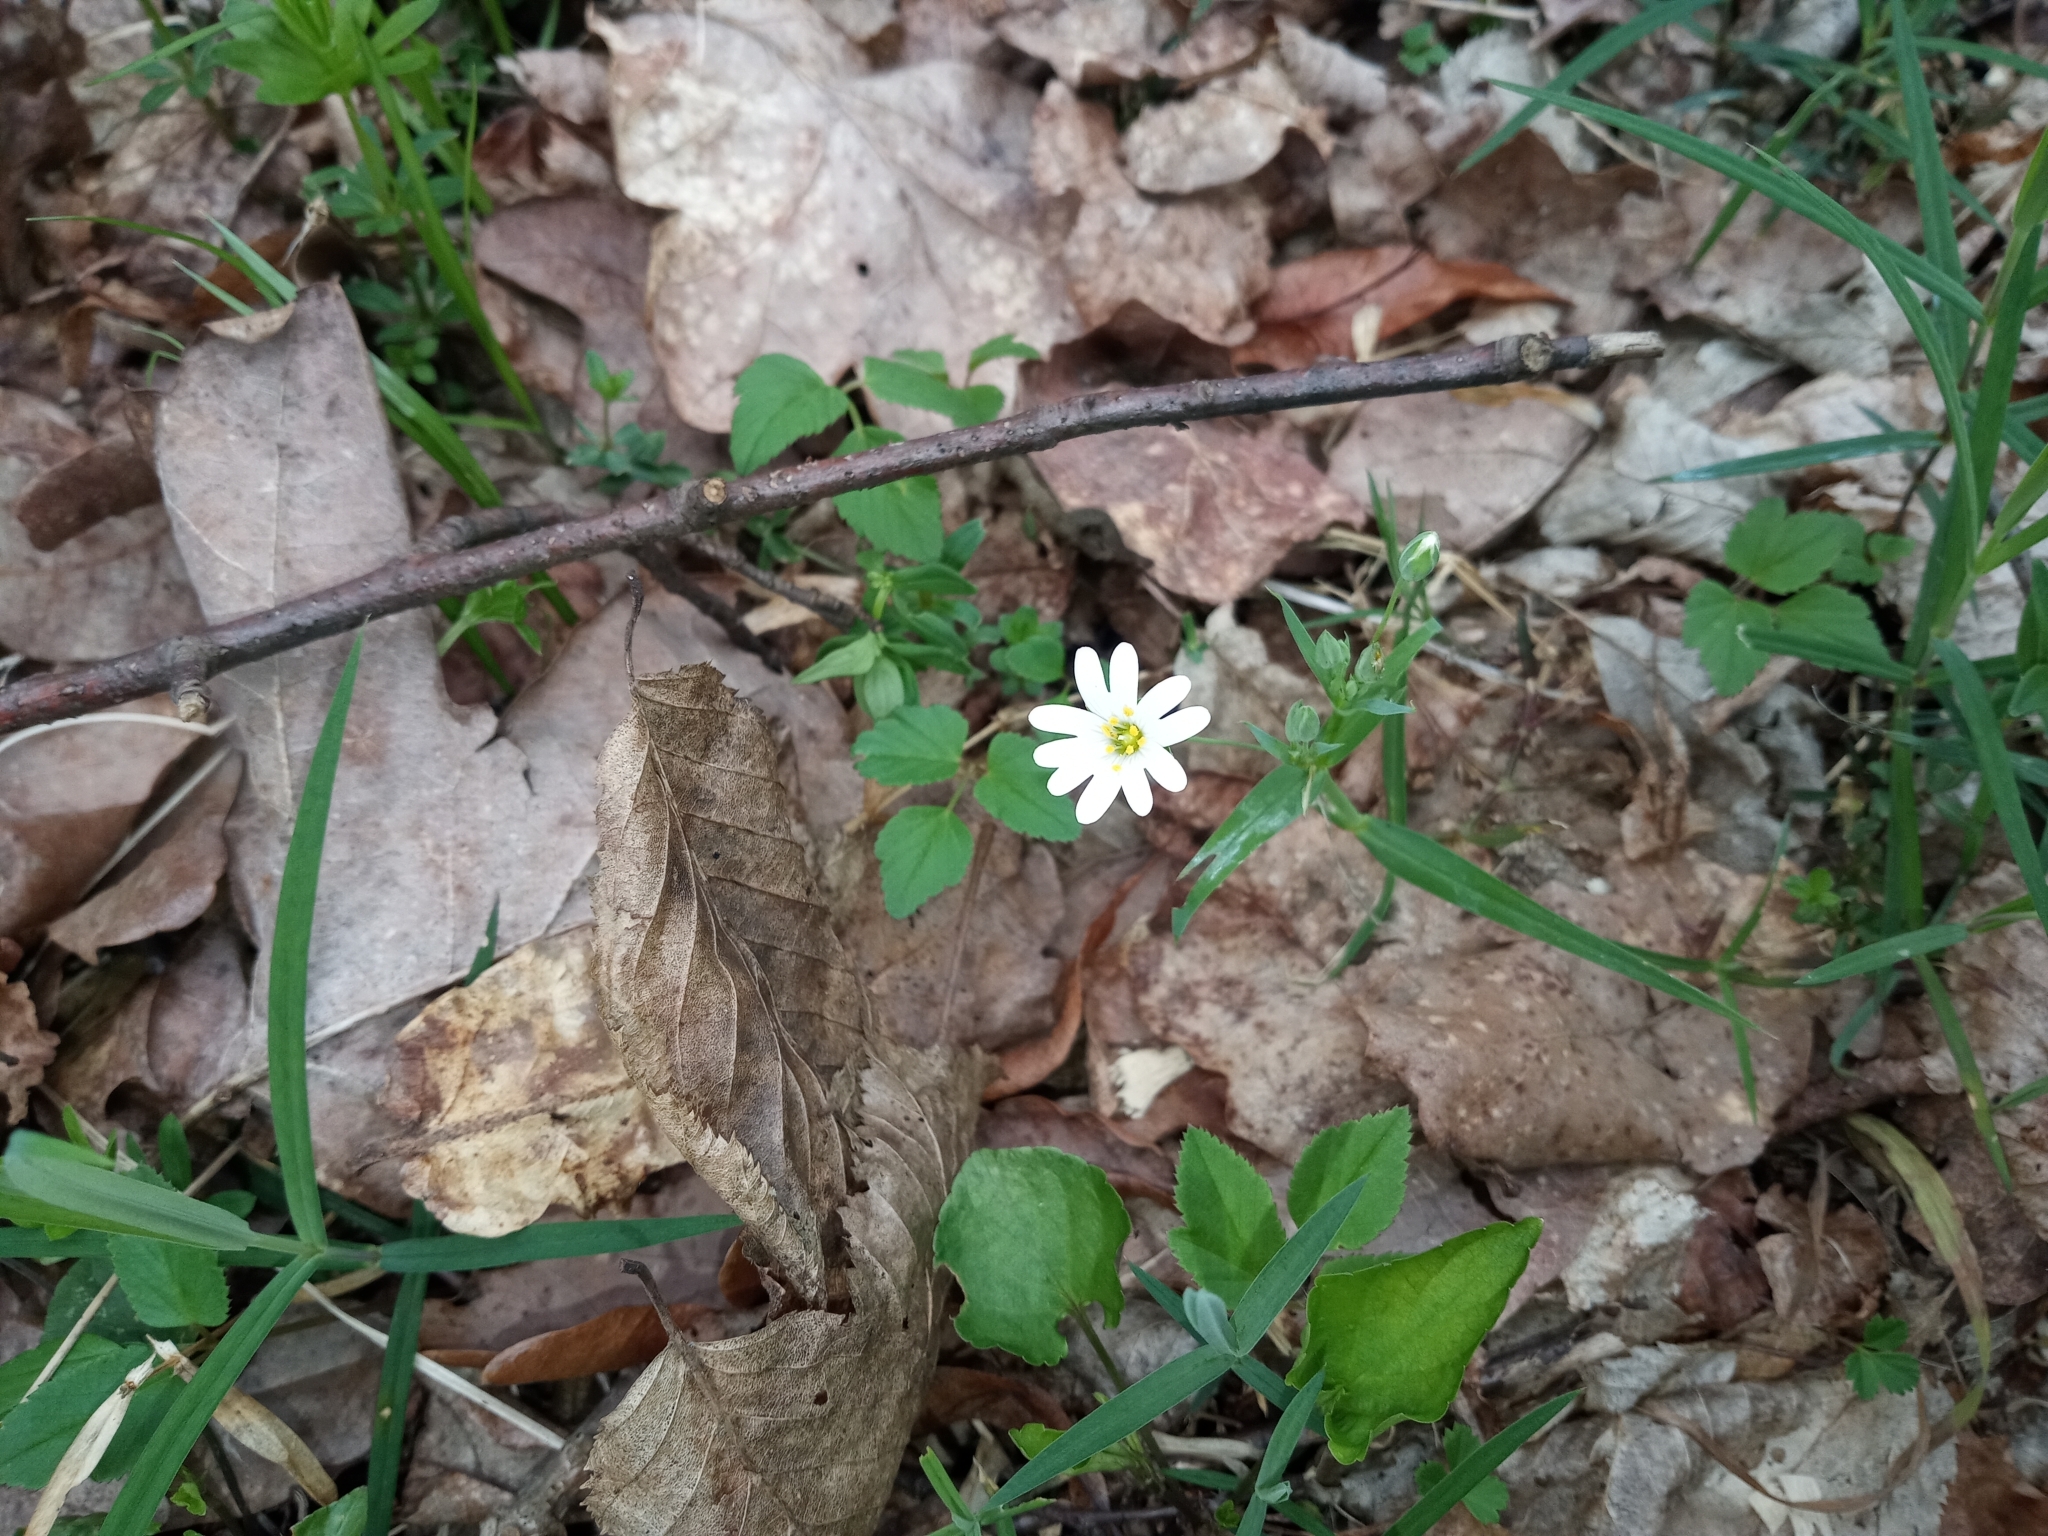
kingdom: Plantae
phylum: Tracheophyta
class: Magnoliopsida
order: Caryophyllales
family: Caryophyllaceae
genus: Rabelera
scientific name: Rabelera holostea
